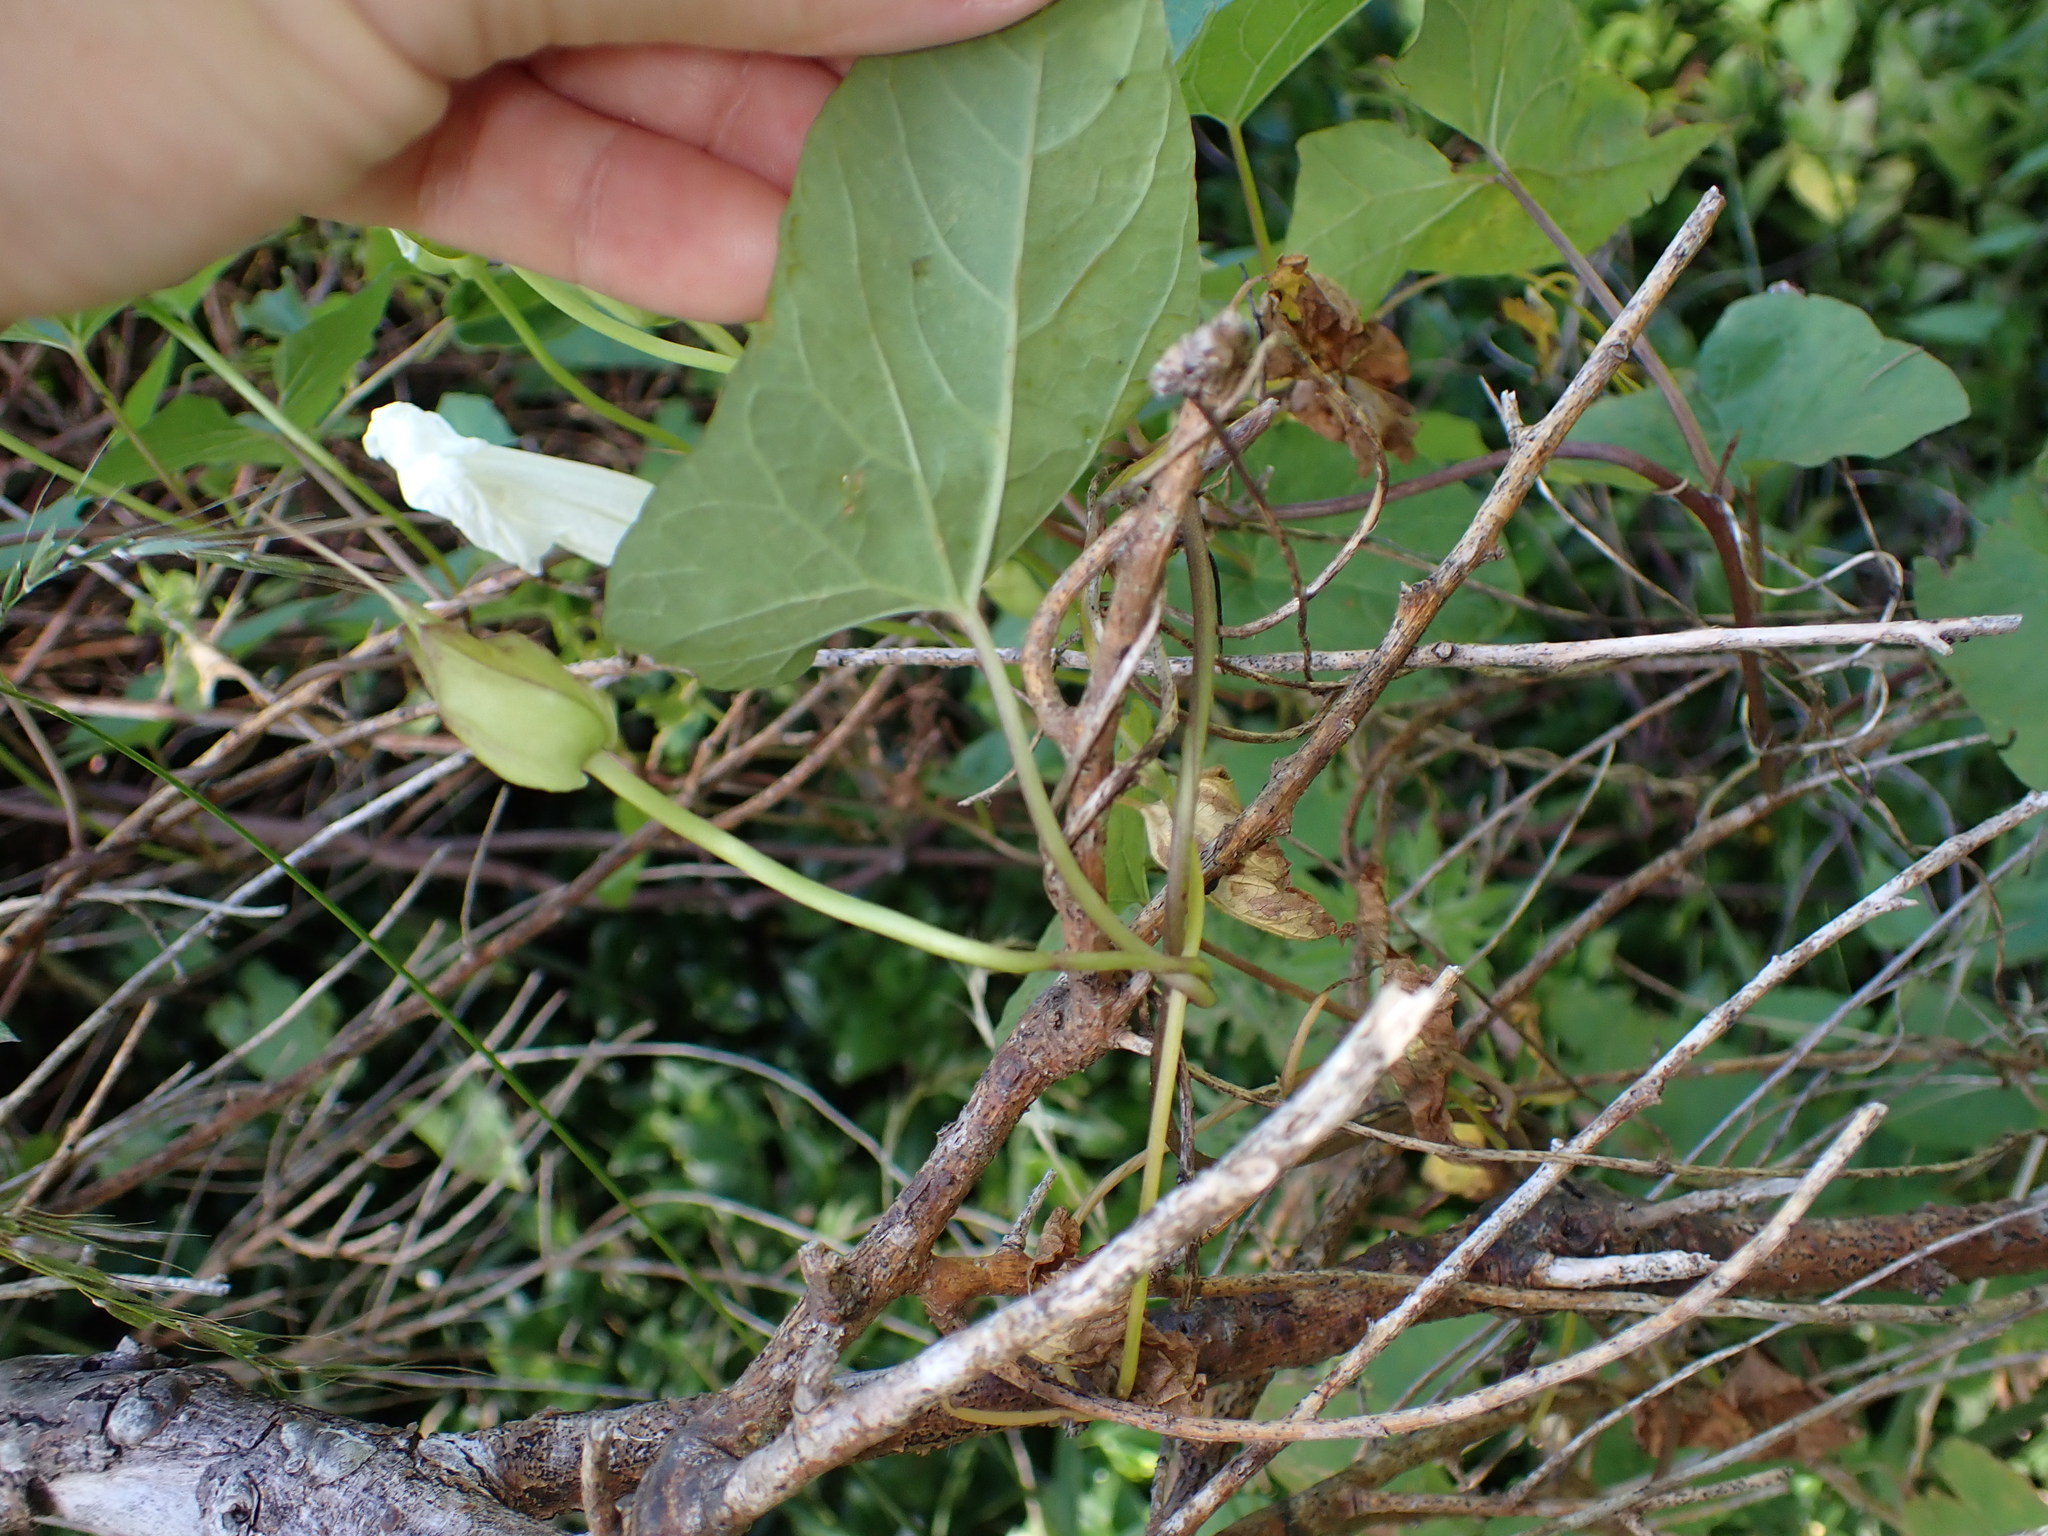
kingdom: Plantae
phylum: Tracheophyta
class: Magnoliopsida
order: Solanales
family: Convolvulaceae
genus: Calystegia
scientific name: Calystegia silvatica
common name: Large bindweed
